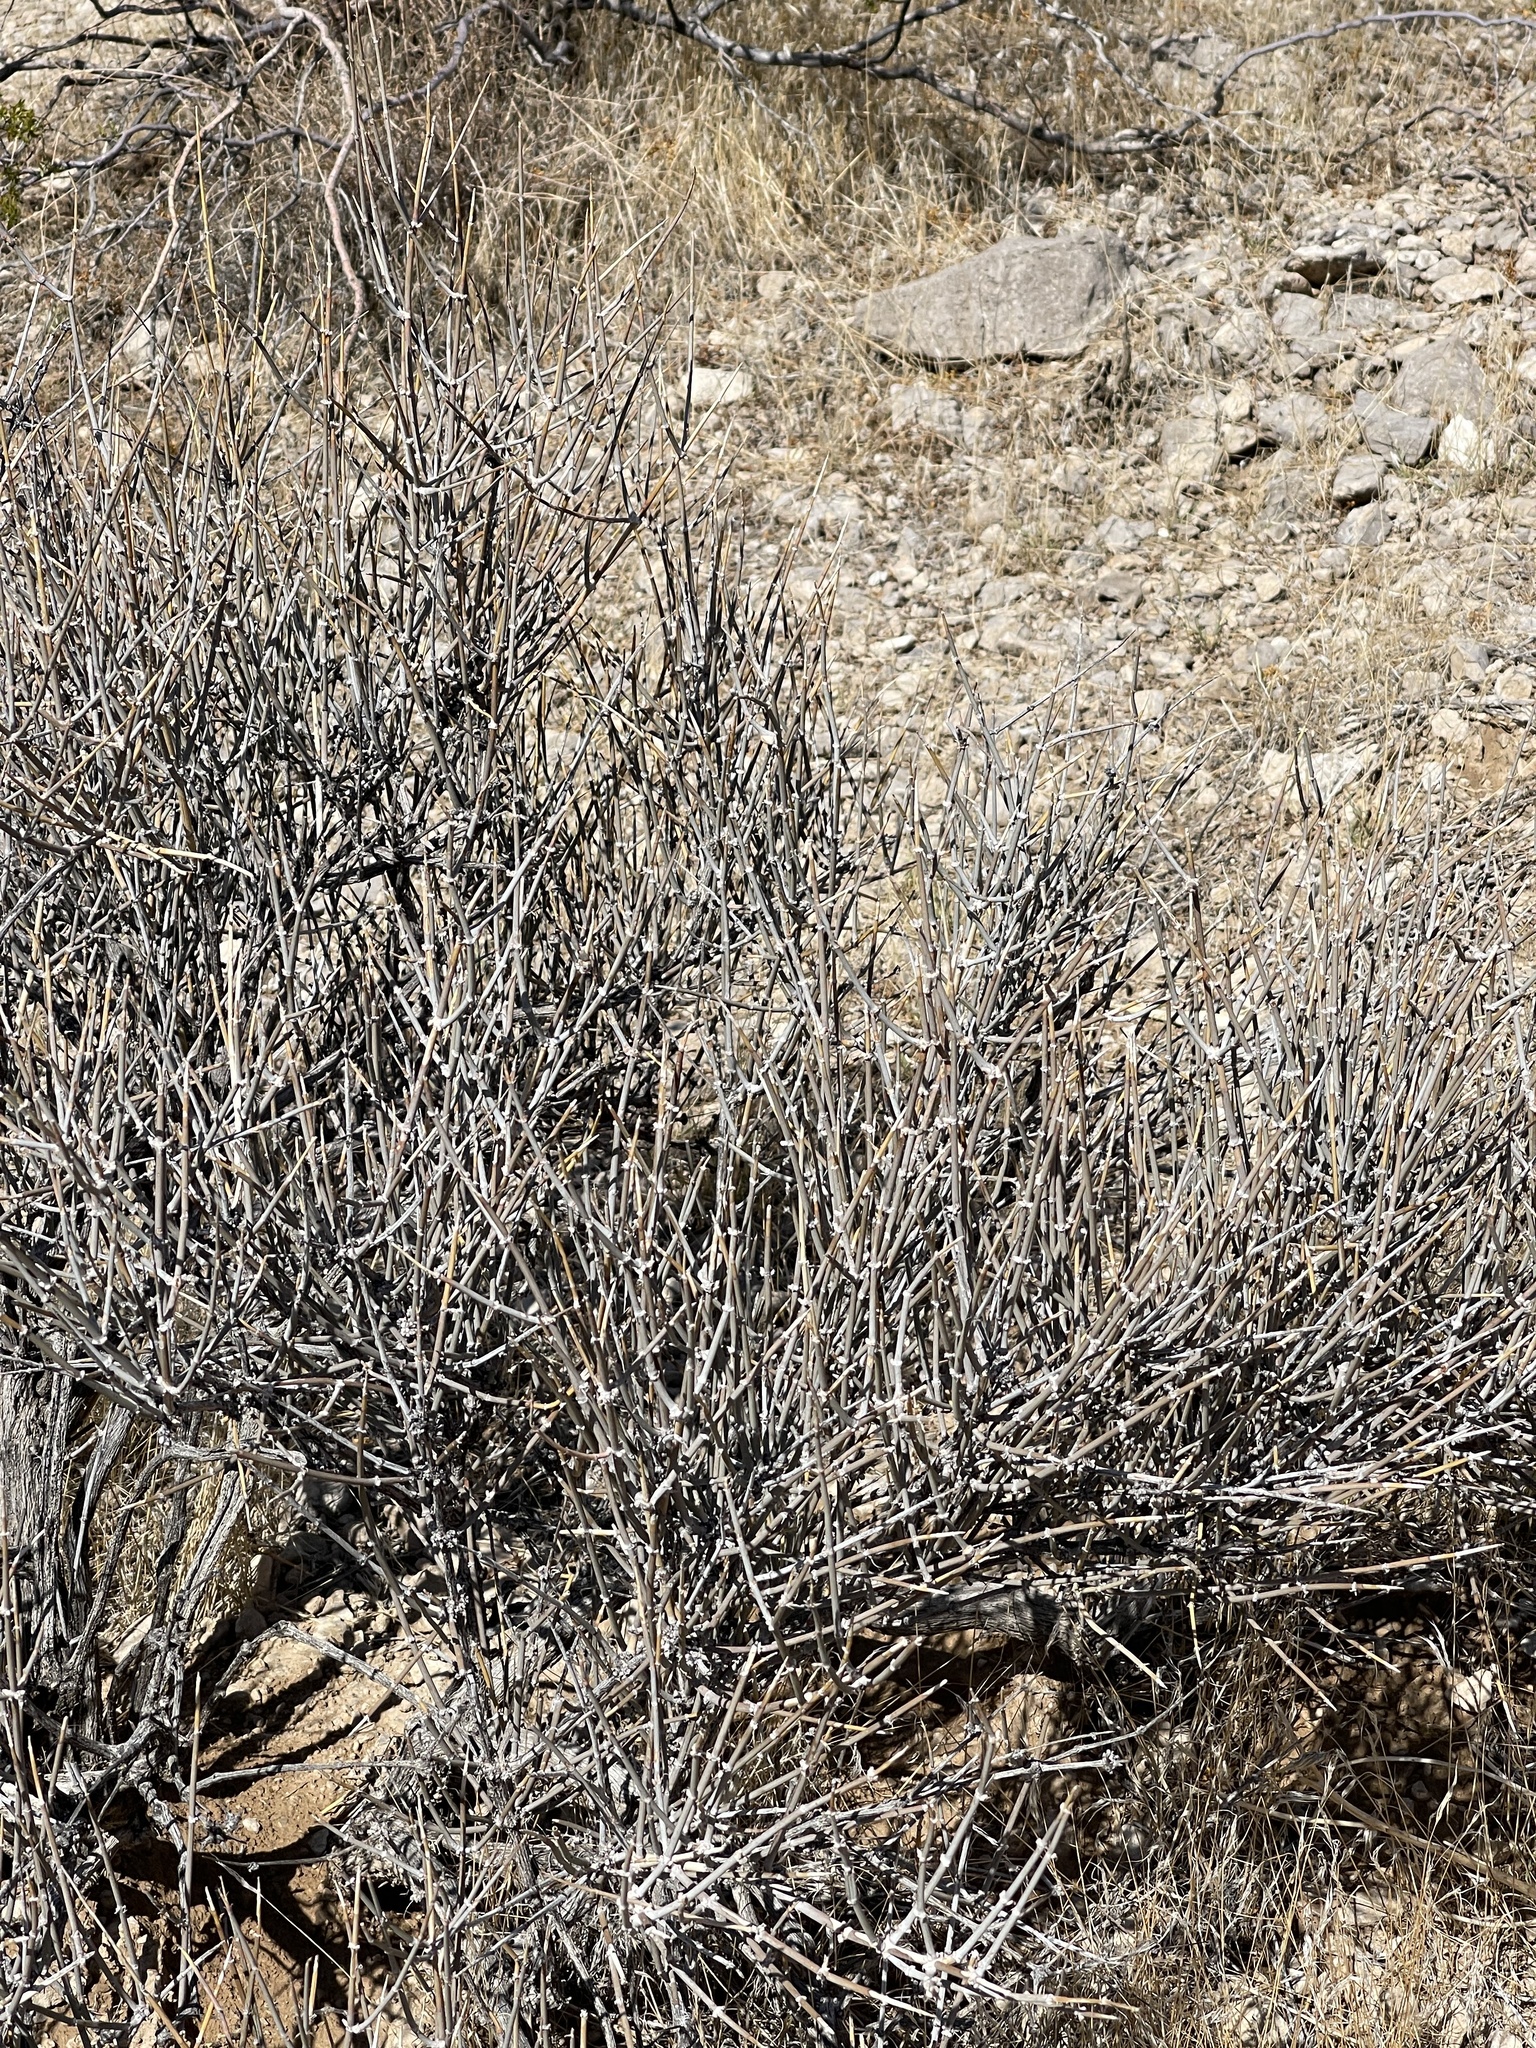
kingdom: Plantae
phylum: Tracheophyta
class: Gnetopsida
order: Ephedrales
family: Ephedraceae
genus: Ephedra
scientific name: Ephedra nevadensis
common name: Gray ephedra
